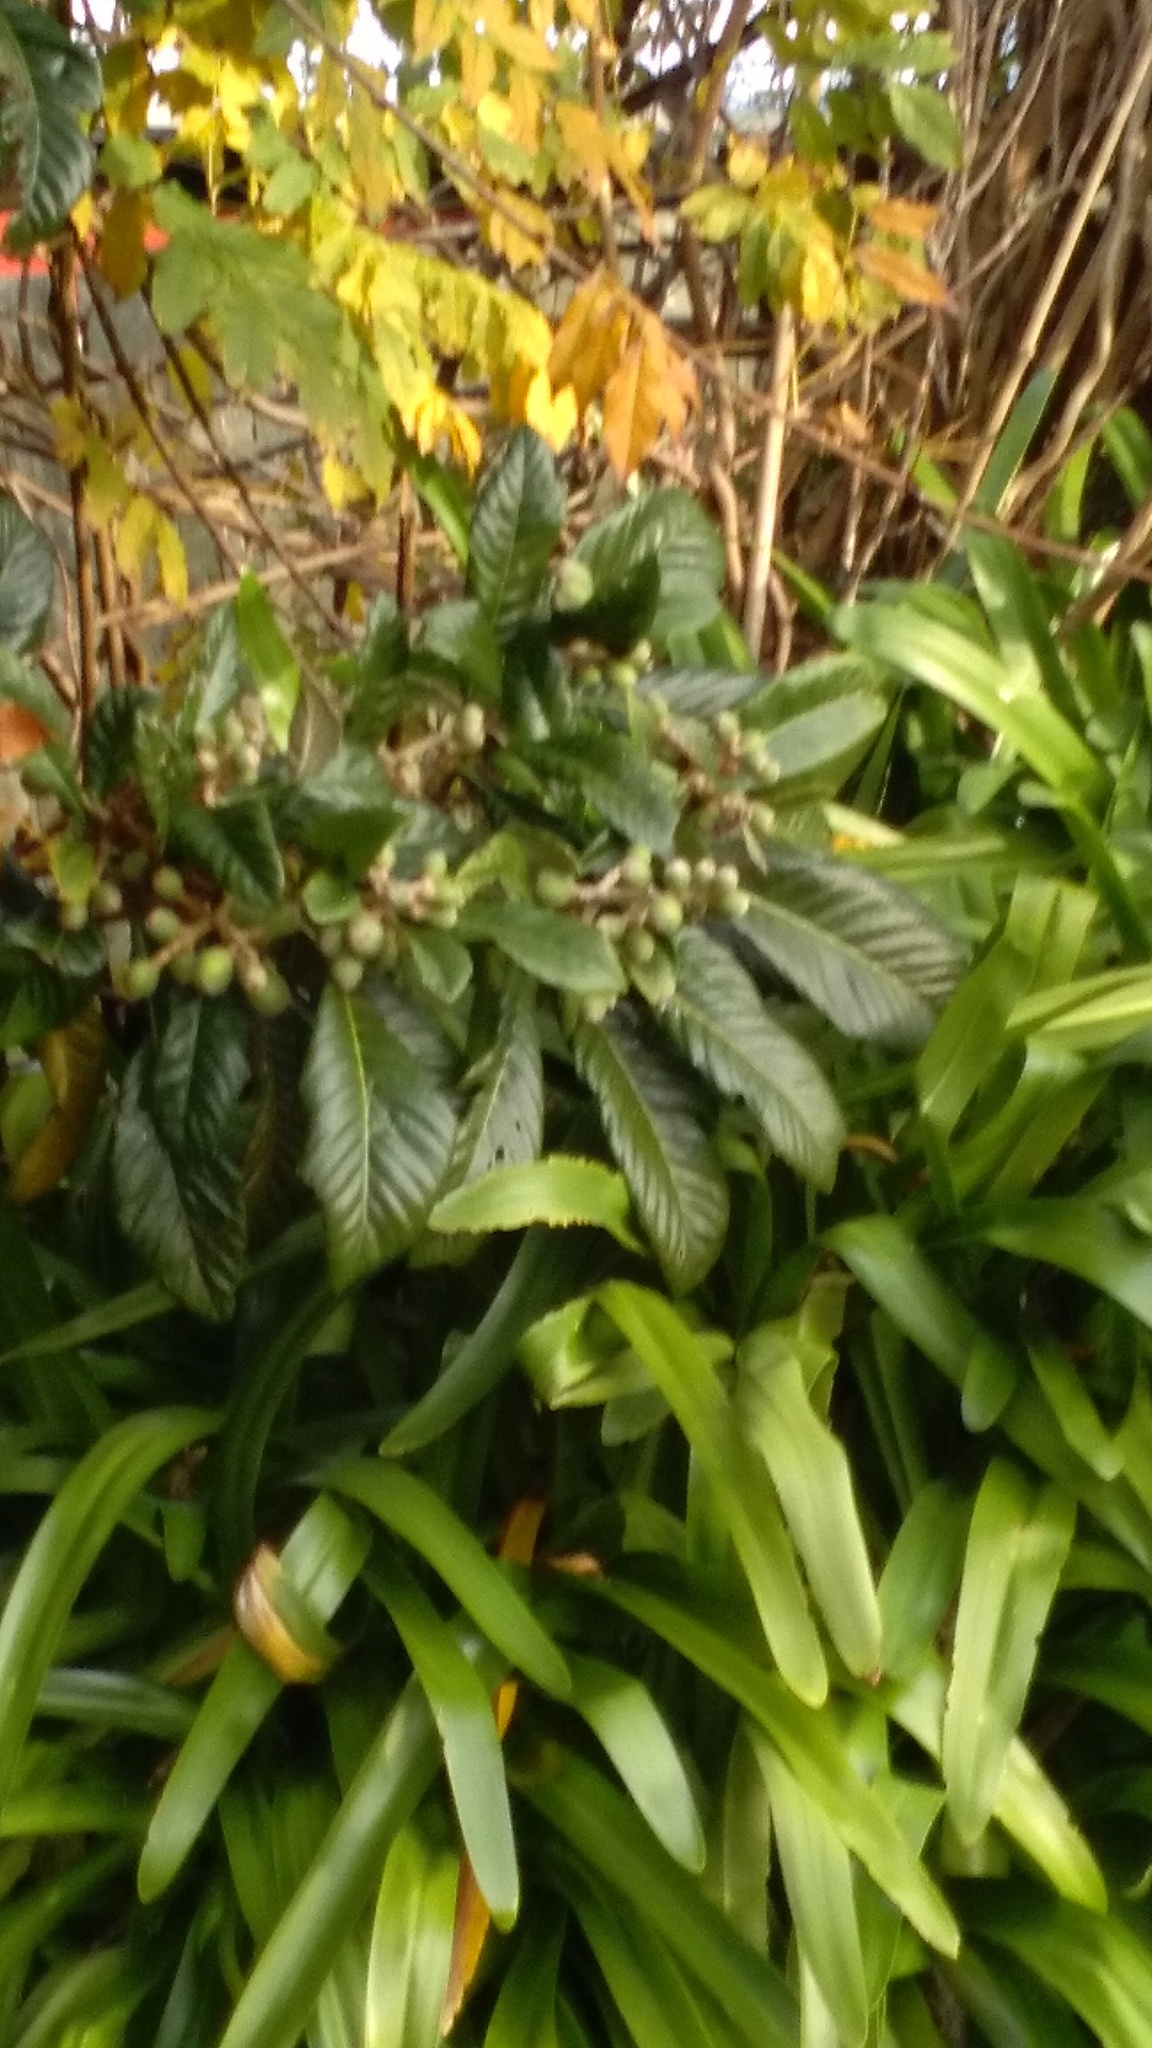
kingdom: Plantae
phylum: Tracheophyta
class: Magnoliopsida
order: Rosales
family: Rosaceae
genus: Rhaphiolepis
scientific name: Rhaphiolepis bibas
